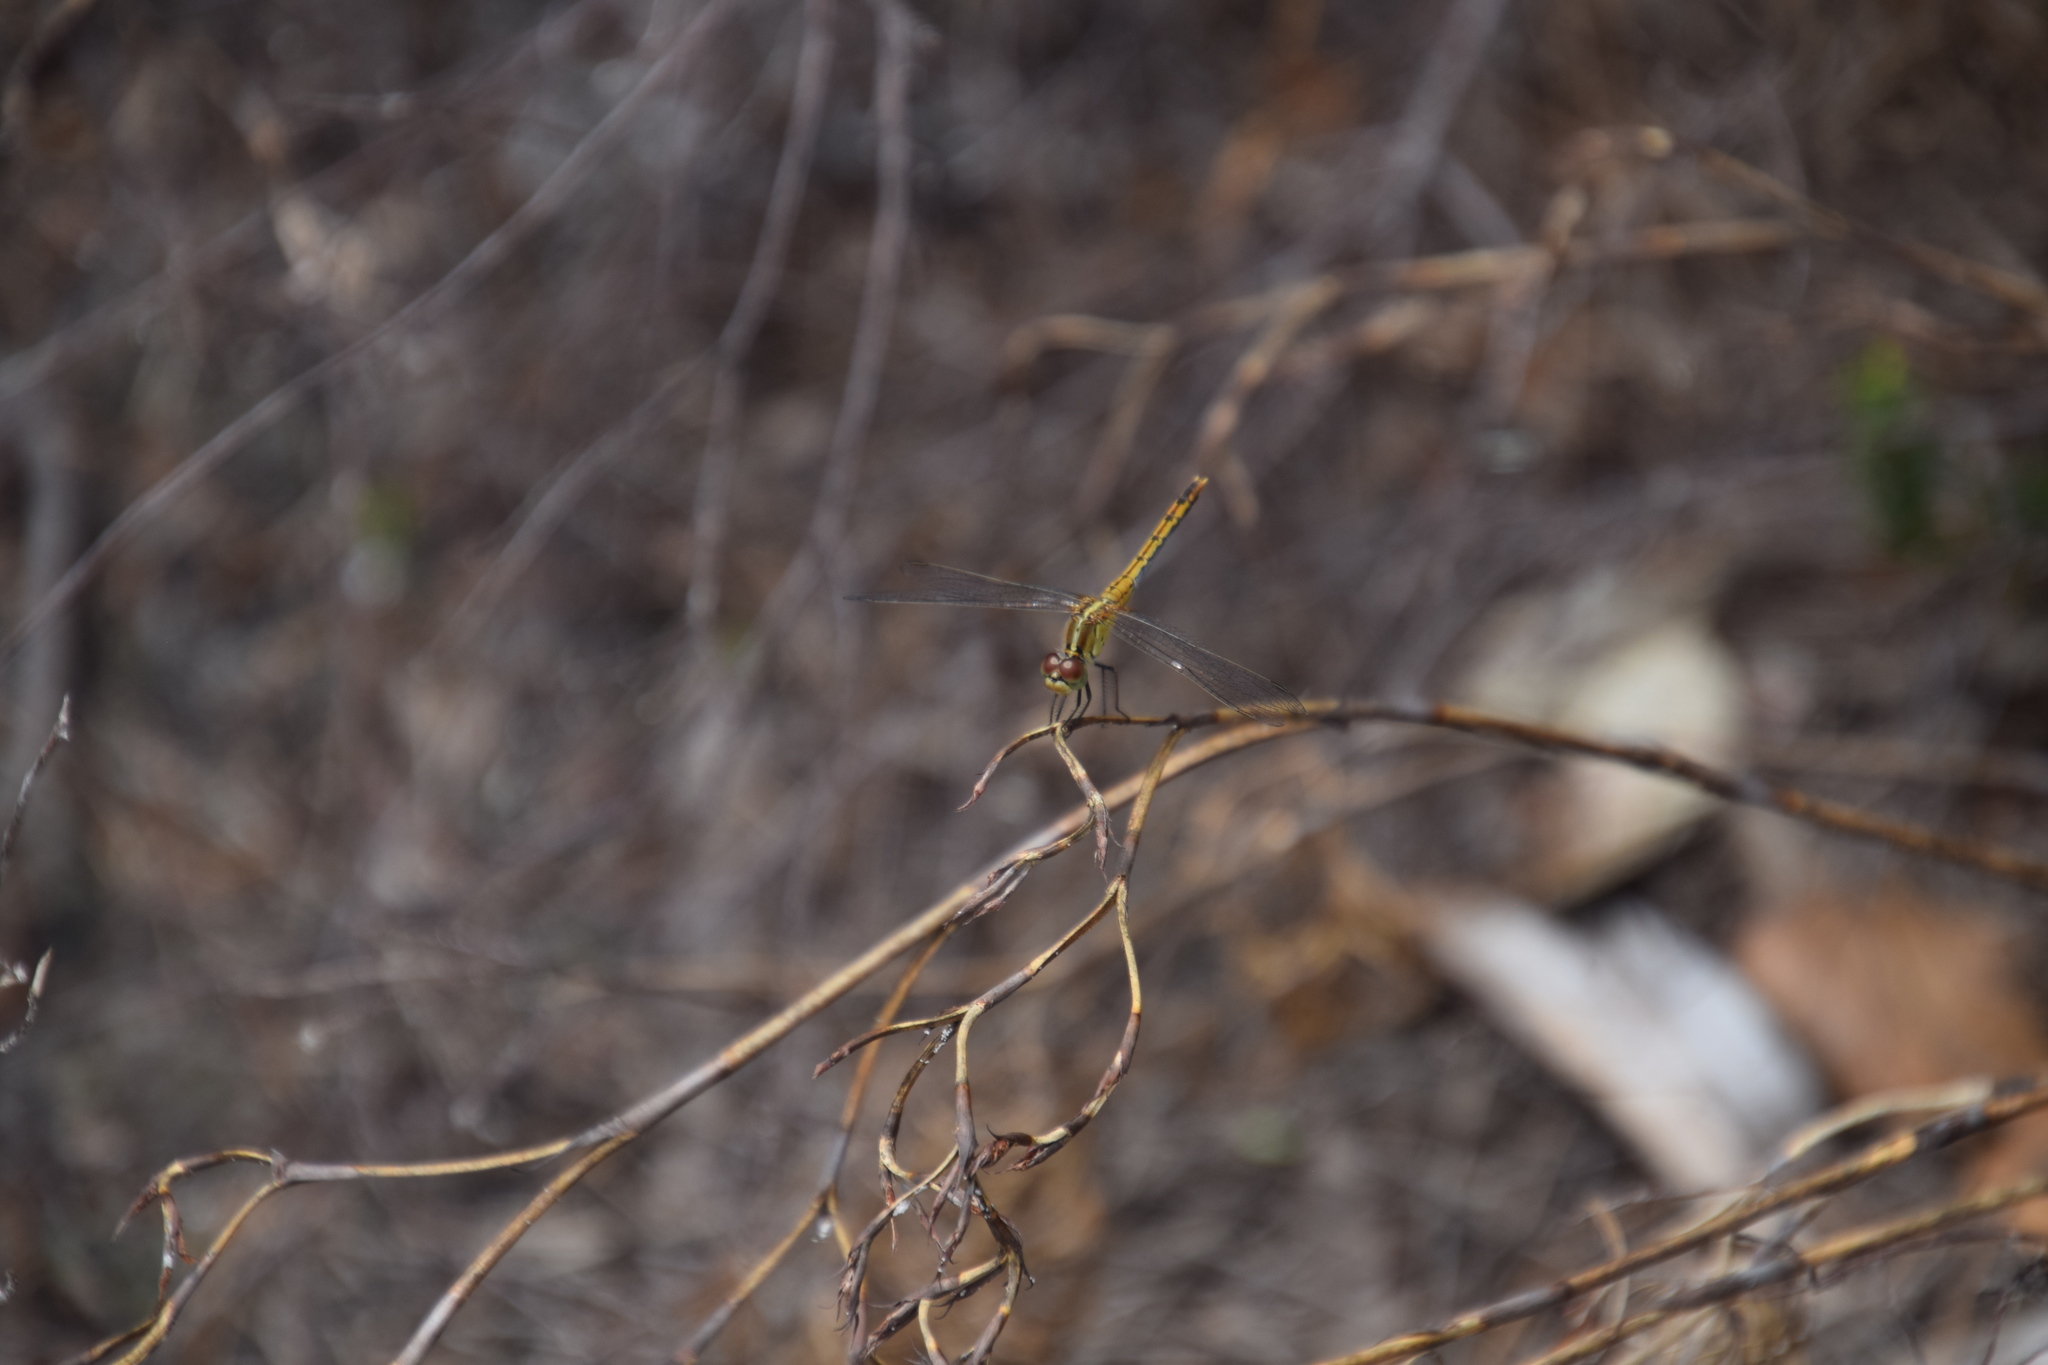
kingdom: Animalia
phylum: Arthropoda
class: Insecta
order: Odonata
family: Libellulidae
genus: Diplacodes
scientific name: Diplacodes bipunctata
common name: Red percher dragonfly
